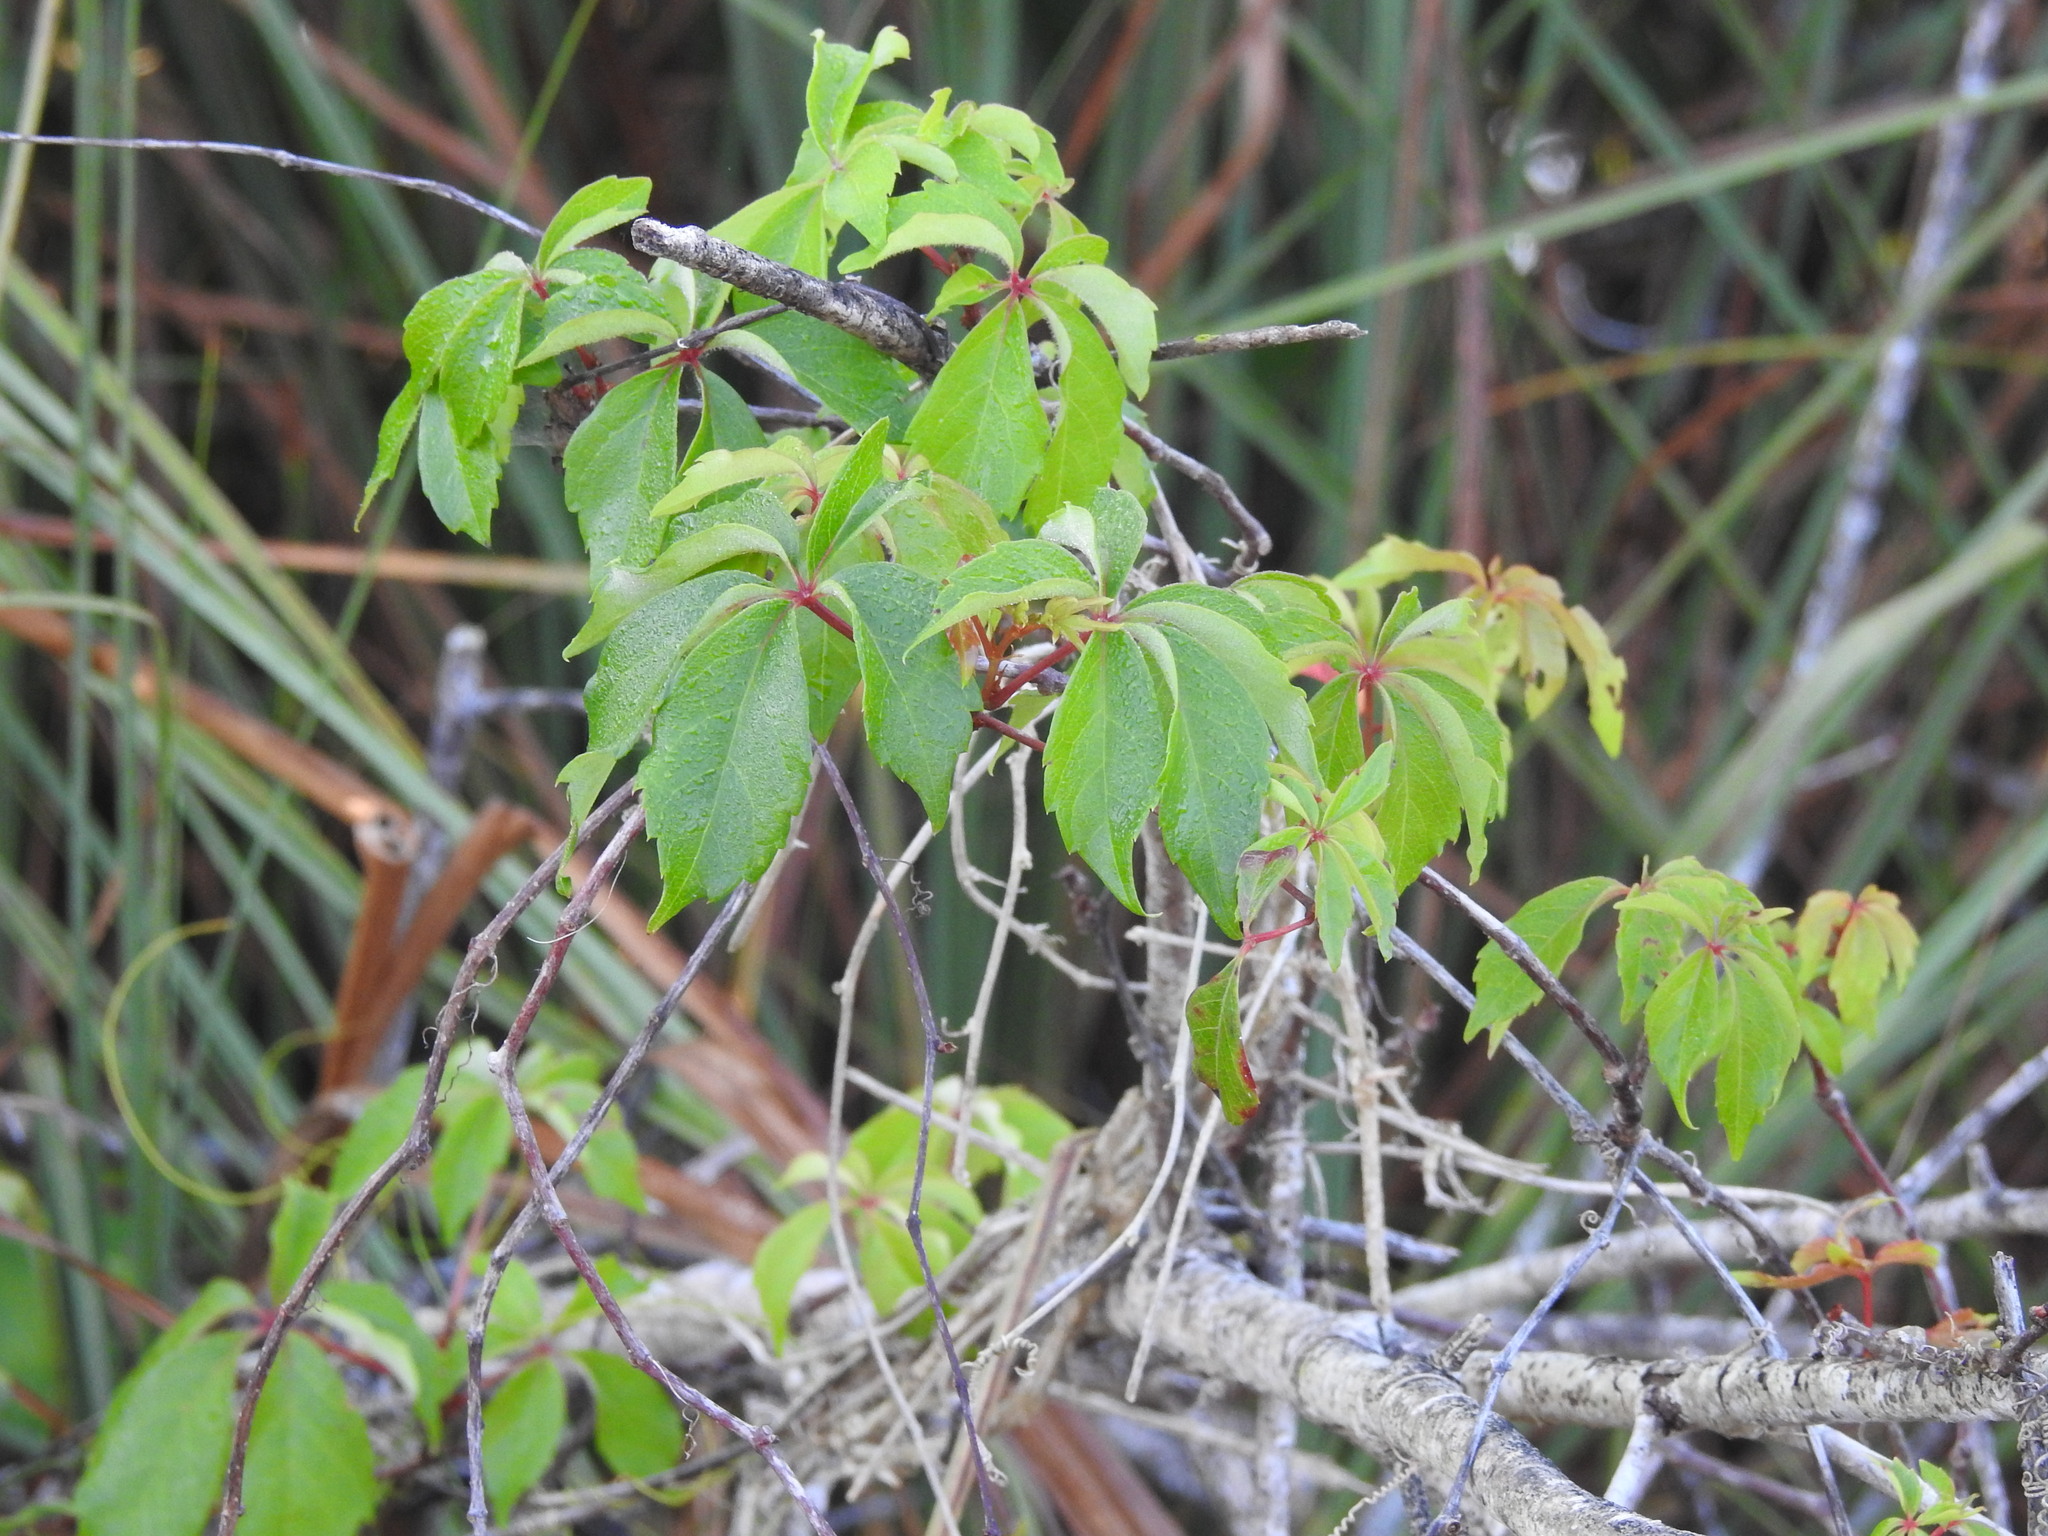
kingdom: Plantae
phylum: Tracheophyta
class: Magnoliopsida
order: Vitales
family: Vitaceae
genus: Parthenocissus
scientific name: Parthenocissus quinquefolia
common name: Virginia-creeper
